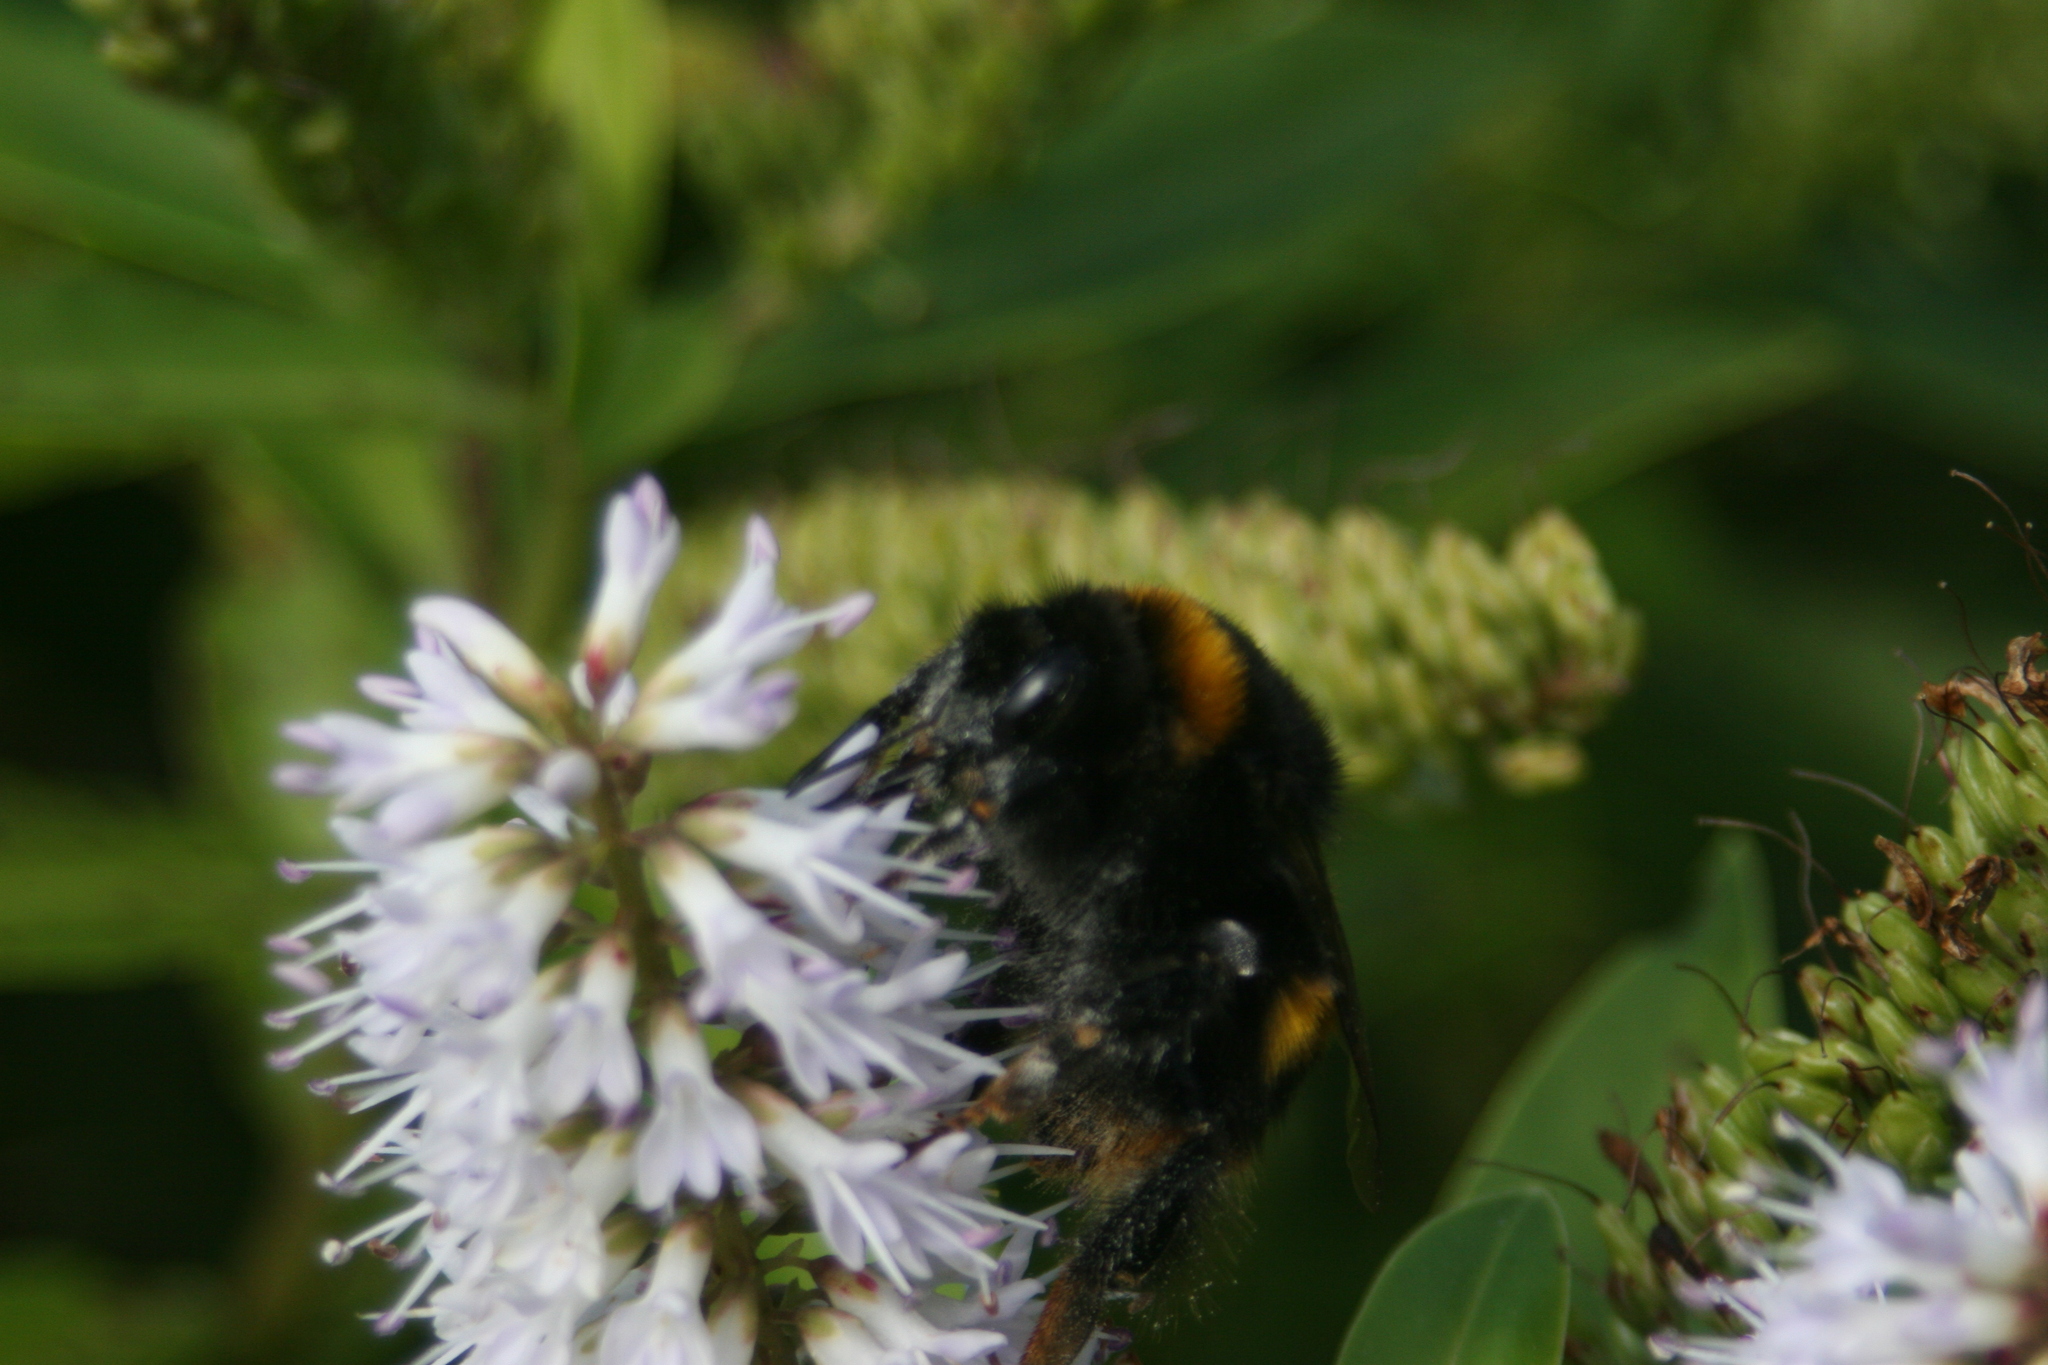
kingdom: Animalia
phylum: Arthropoda
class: Insecta
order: Hymenoptera
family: Apidae
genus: Bombus
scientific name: Bombus terrestris
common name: Buff-tailed bumblebee
